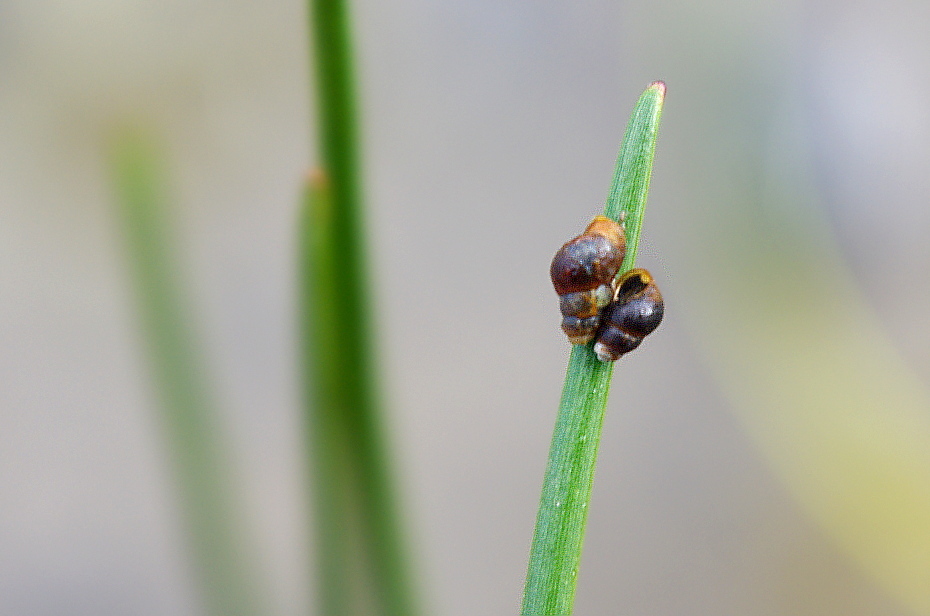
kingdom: Animalia
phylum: Mollusca
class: Gastropoda
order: Littorinimorpha
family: Hydrobiidae
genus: Peringia
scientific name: Peringia ulvae
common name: Laver spire shell
